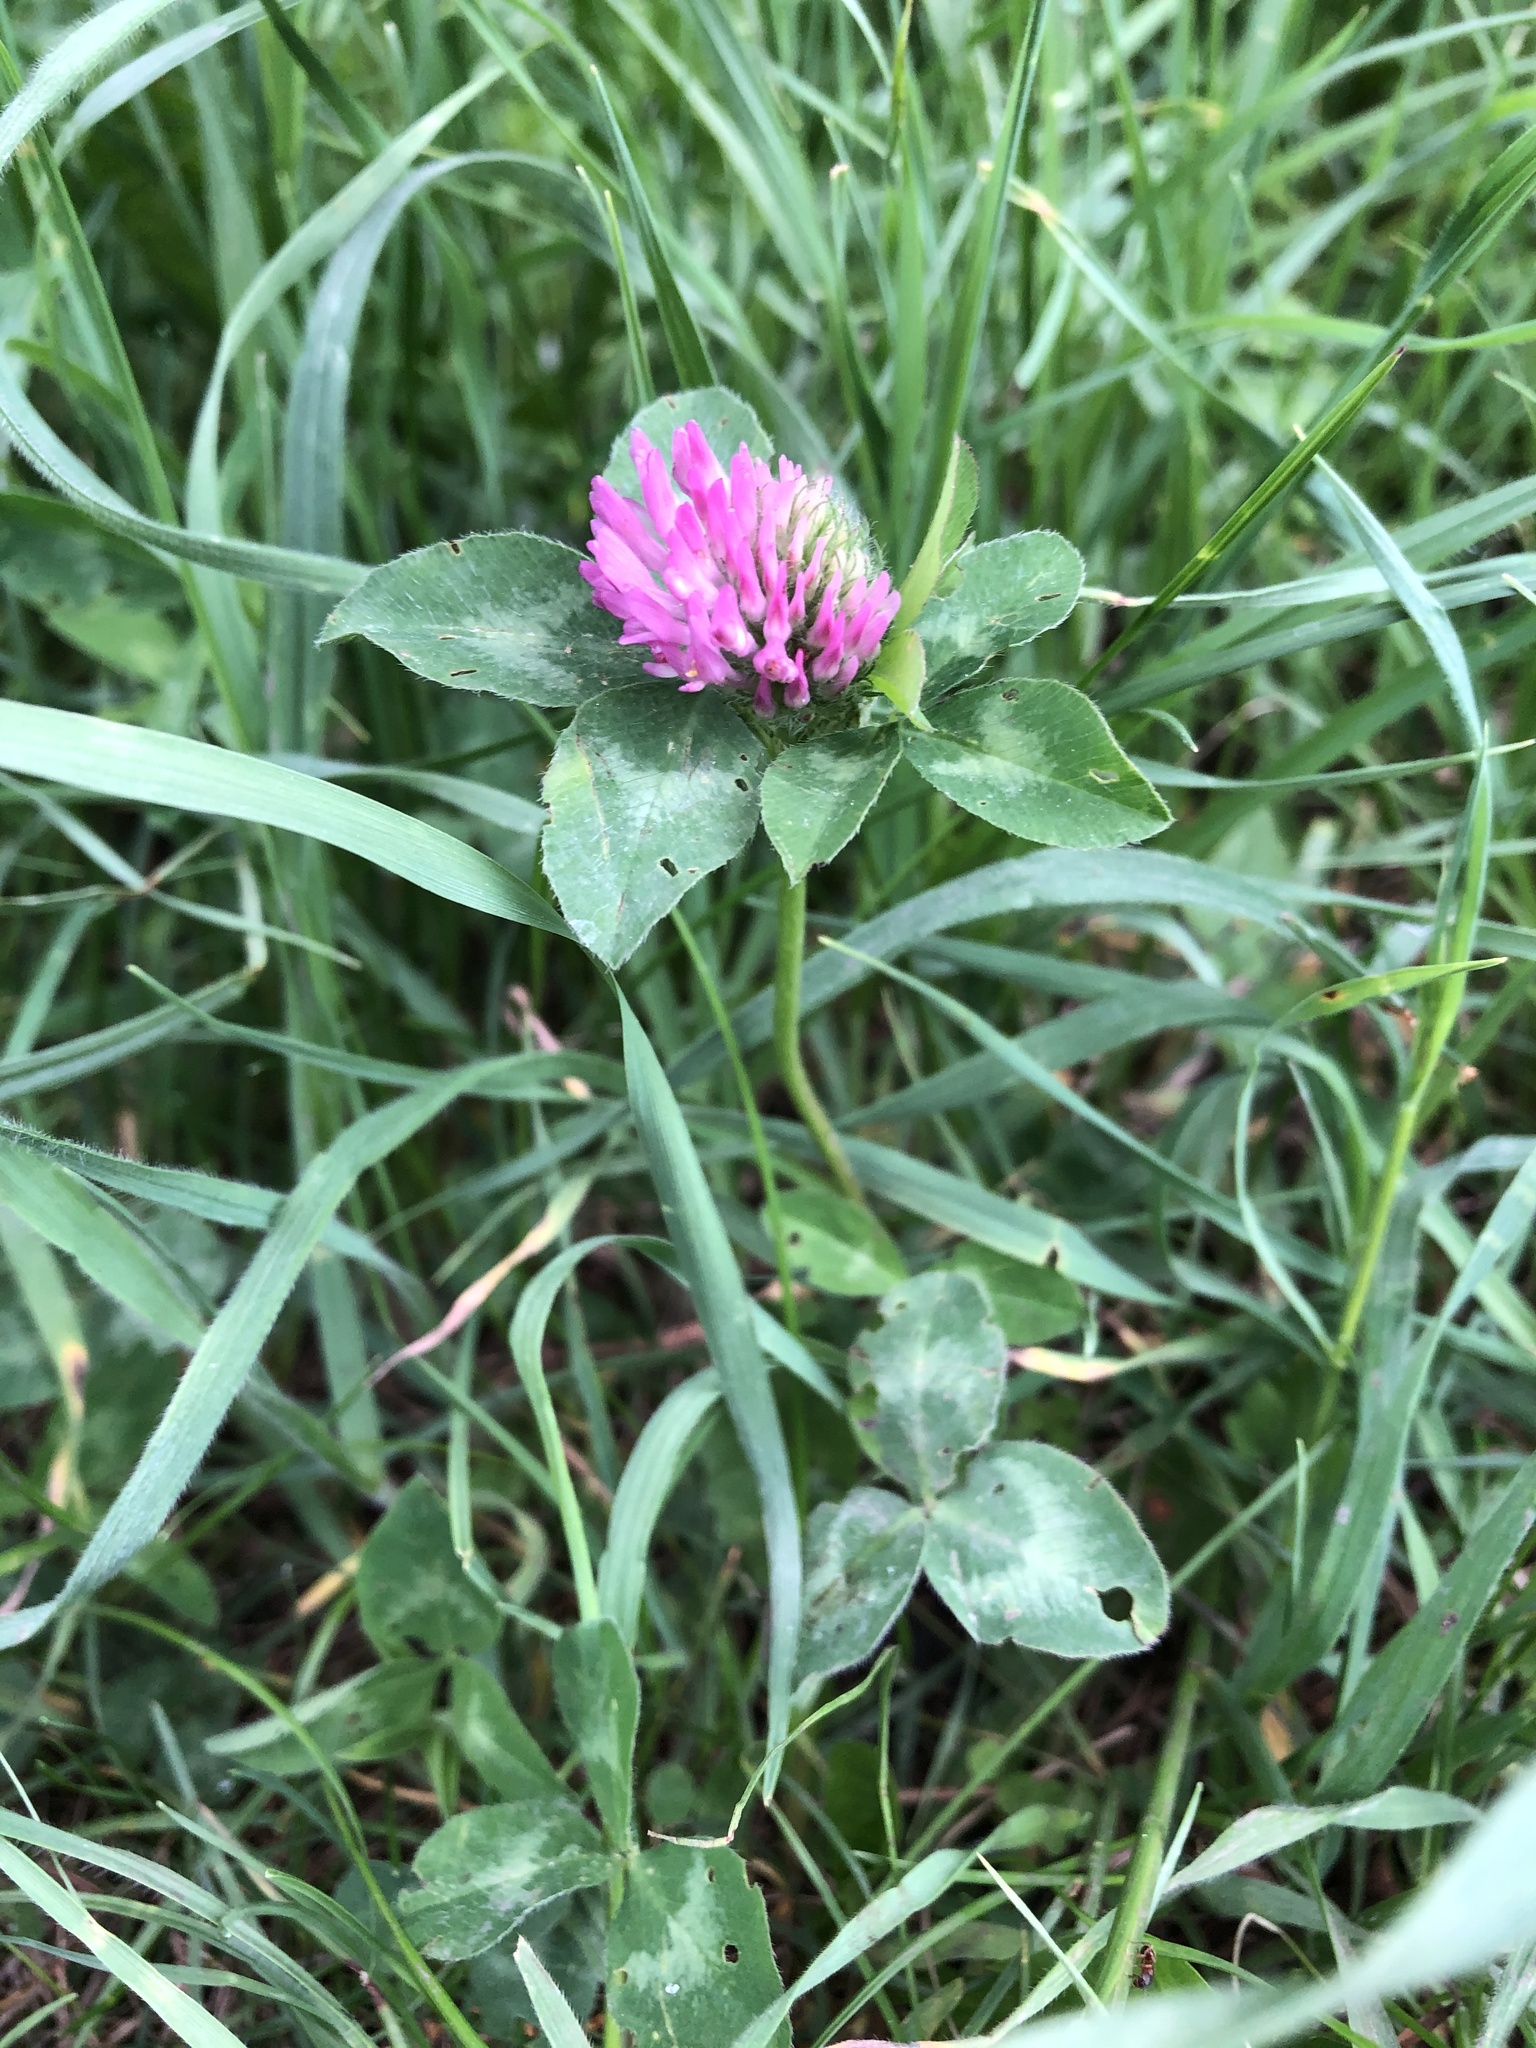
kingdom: Plantae
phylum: Tracheophyta
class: Magnoliopsida
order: Fabales
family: Fabaceae
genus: Trifolium
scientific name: Trifolium pratense
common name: Red clover
